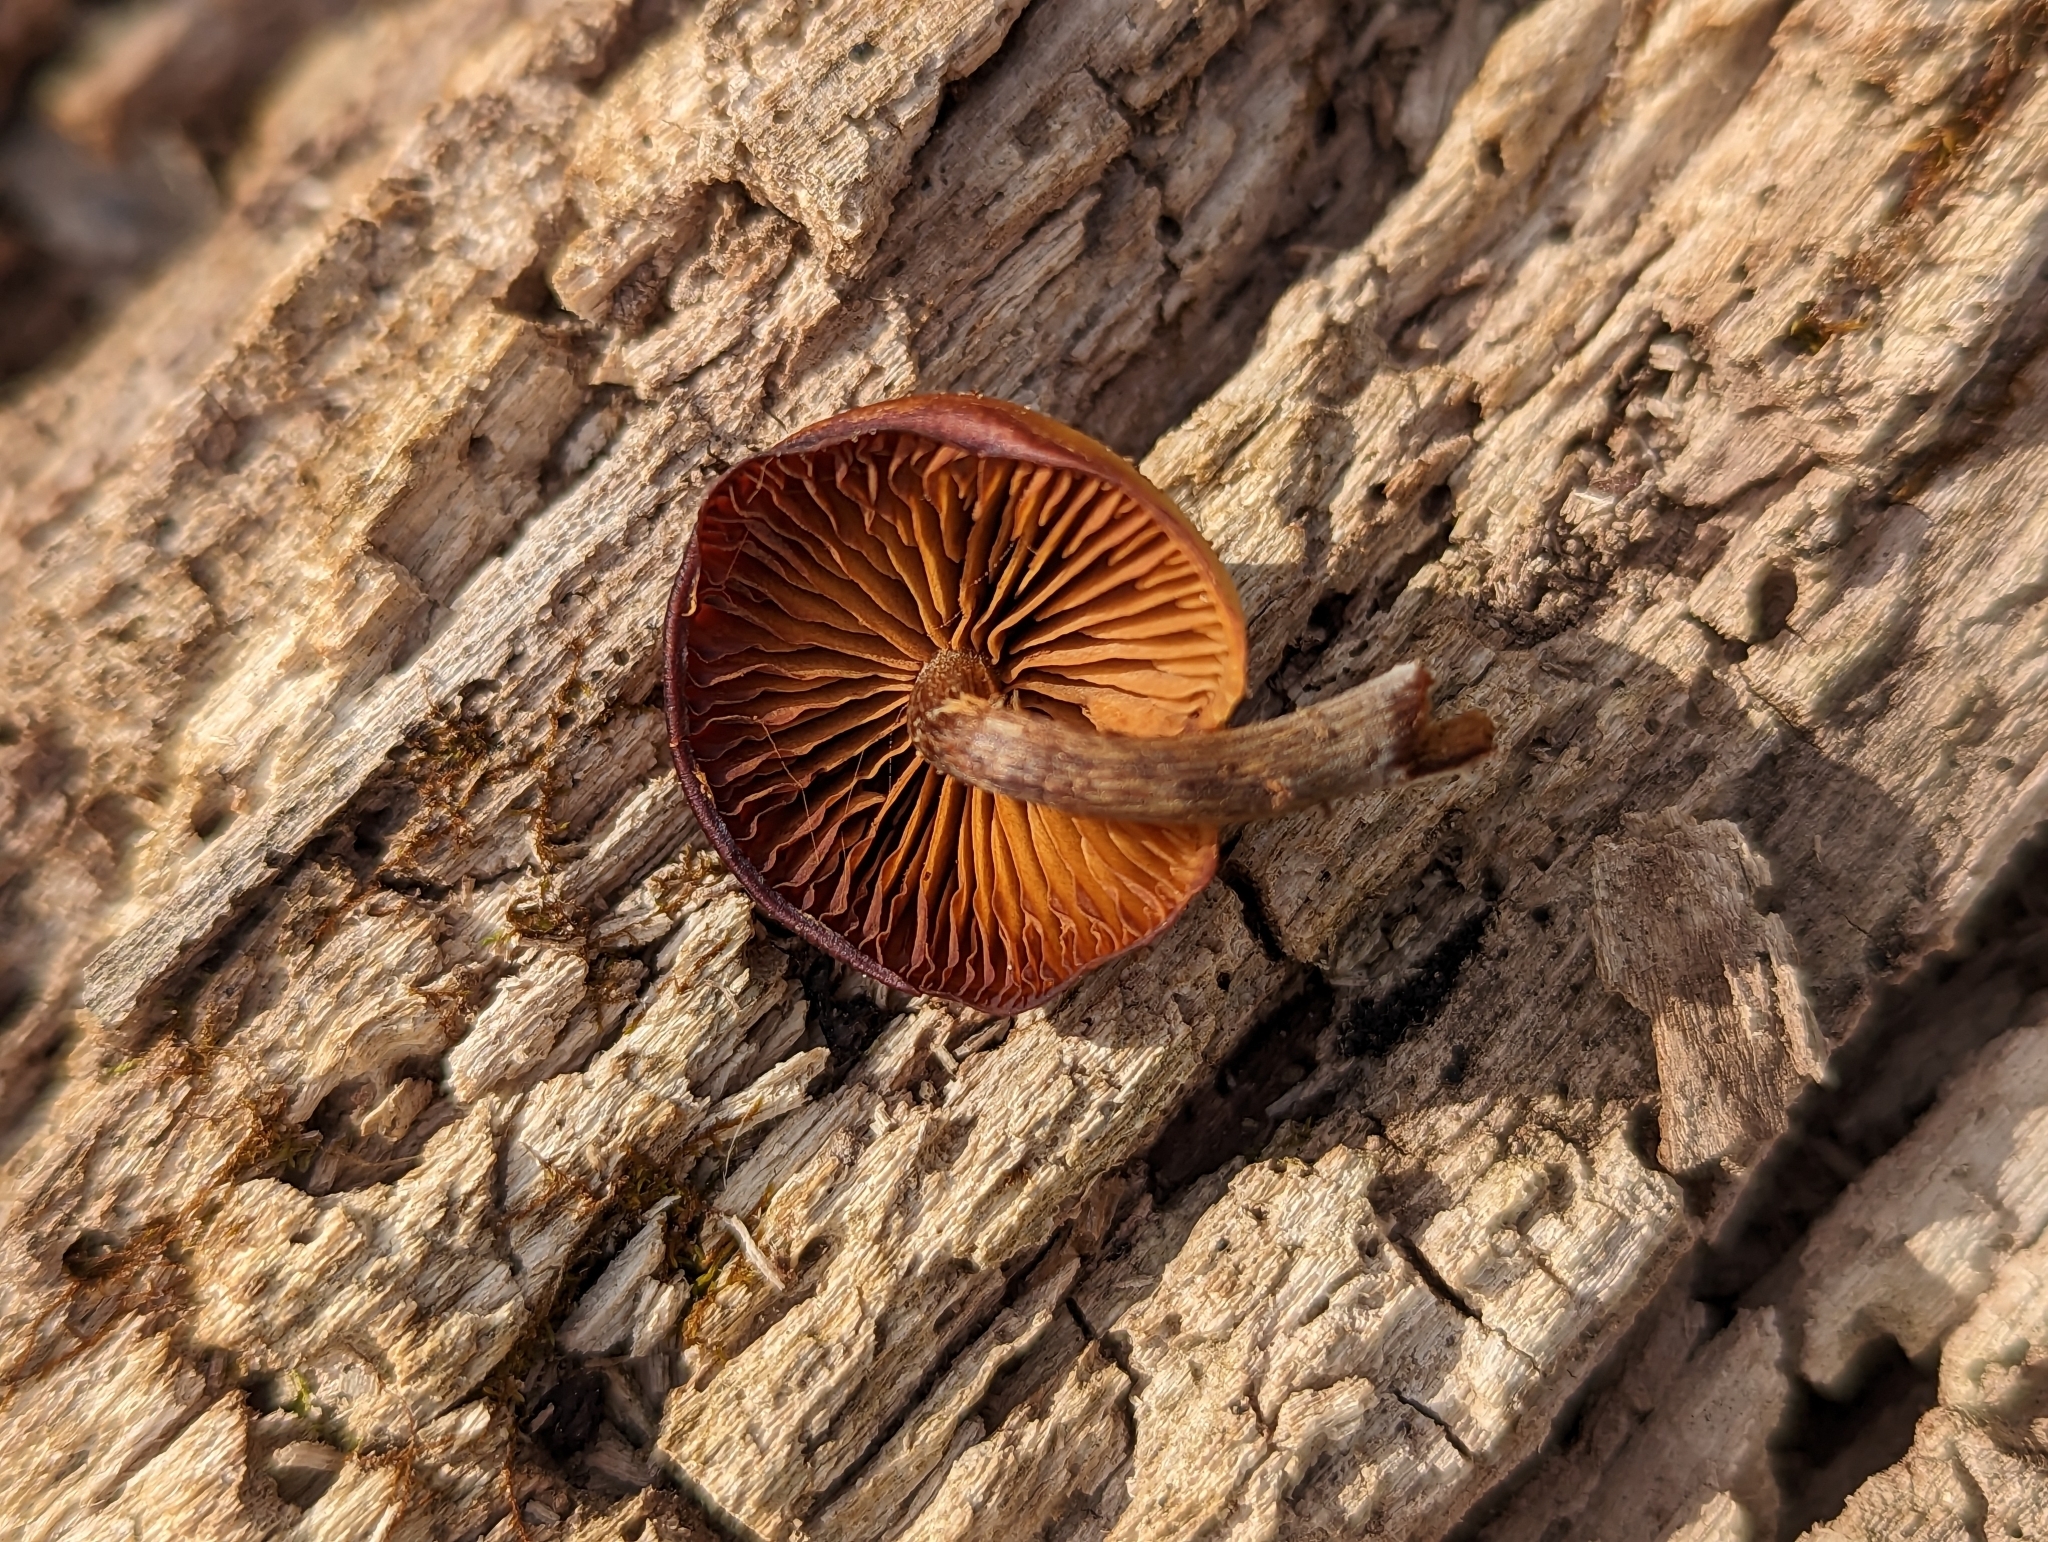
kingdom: Fungi
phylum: Basidiomycota
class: Agaricomycetes
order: Agaricales
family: Hymenogastraceae
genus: Galerina
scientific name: Galerina marginata
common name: Funeral bell
